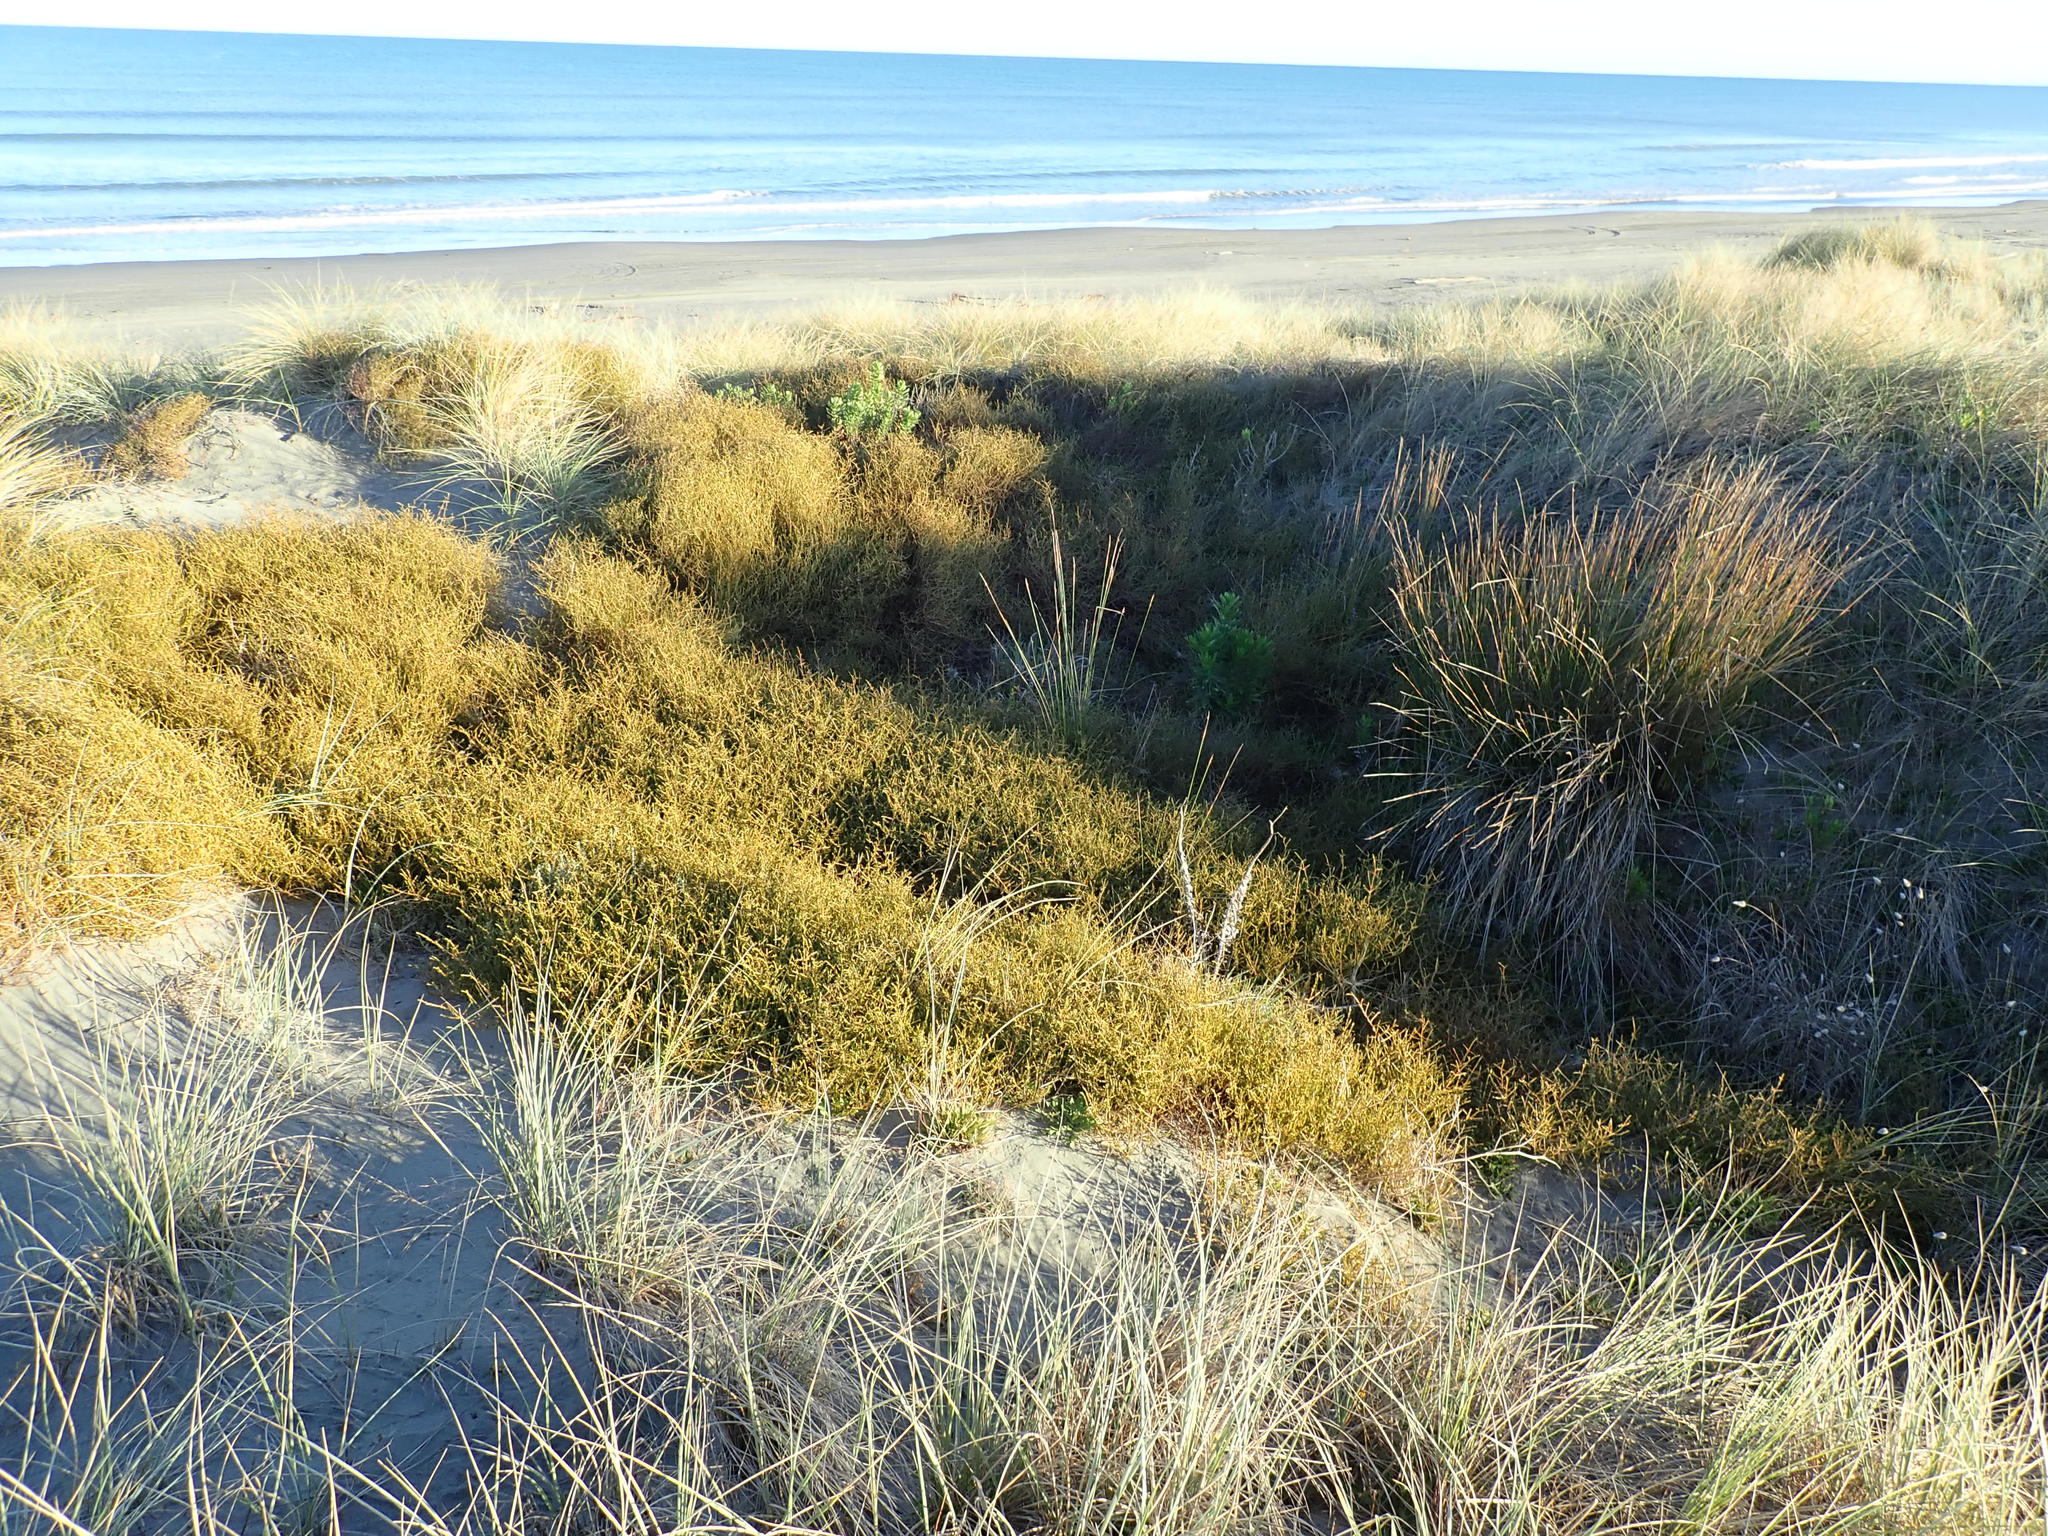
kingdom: Plantae
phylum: Tracheophyta
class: Magnoliopsida
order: Malvales
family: Thymelaeaceae
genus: Pimelea
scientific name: Pimelea villosa
